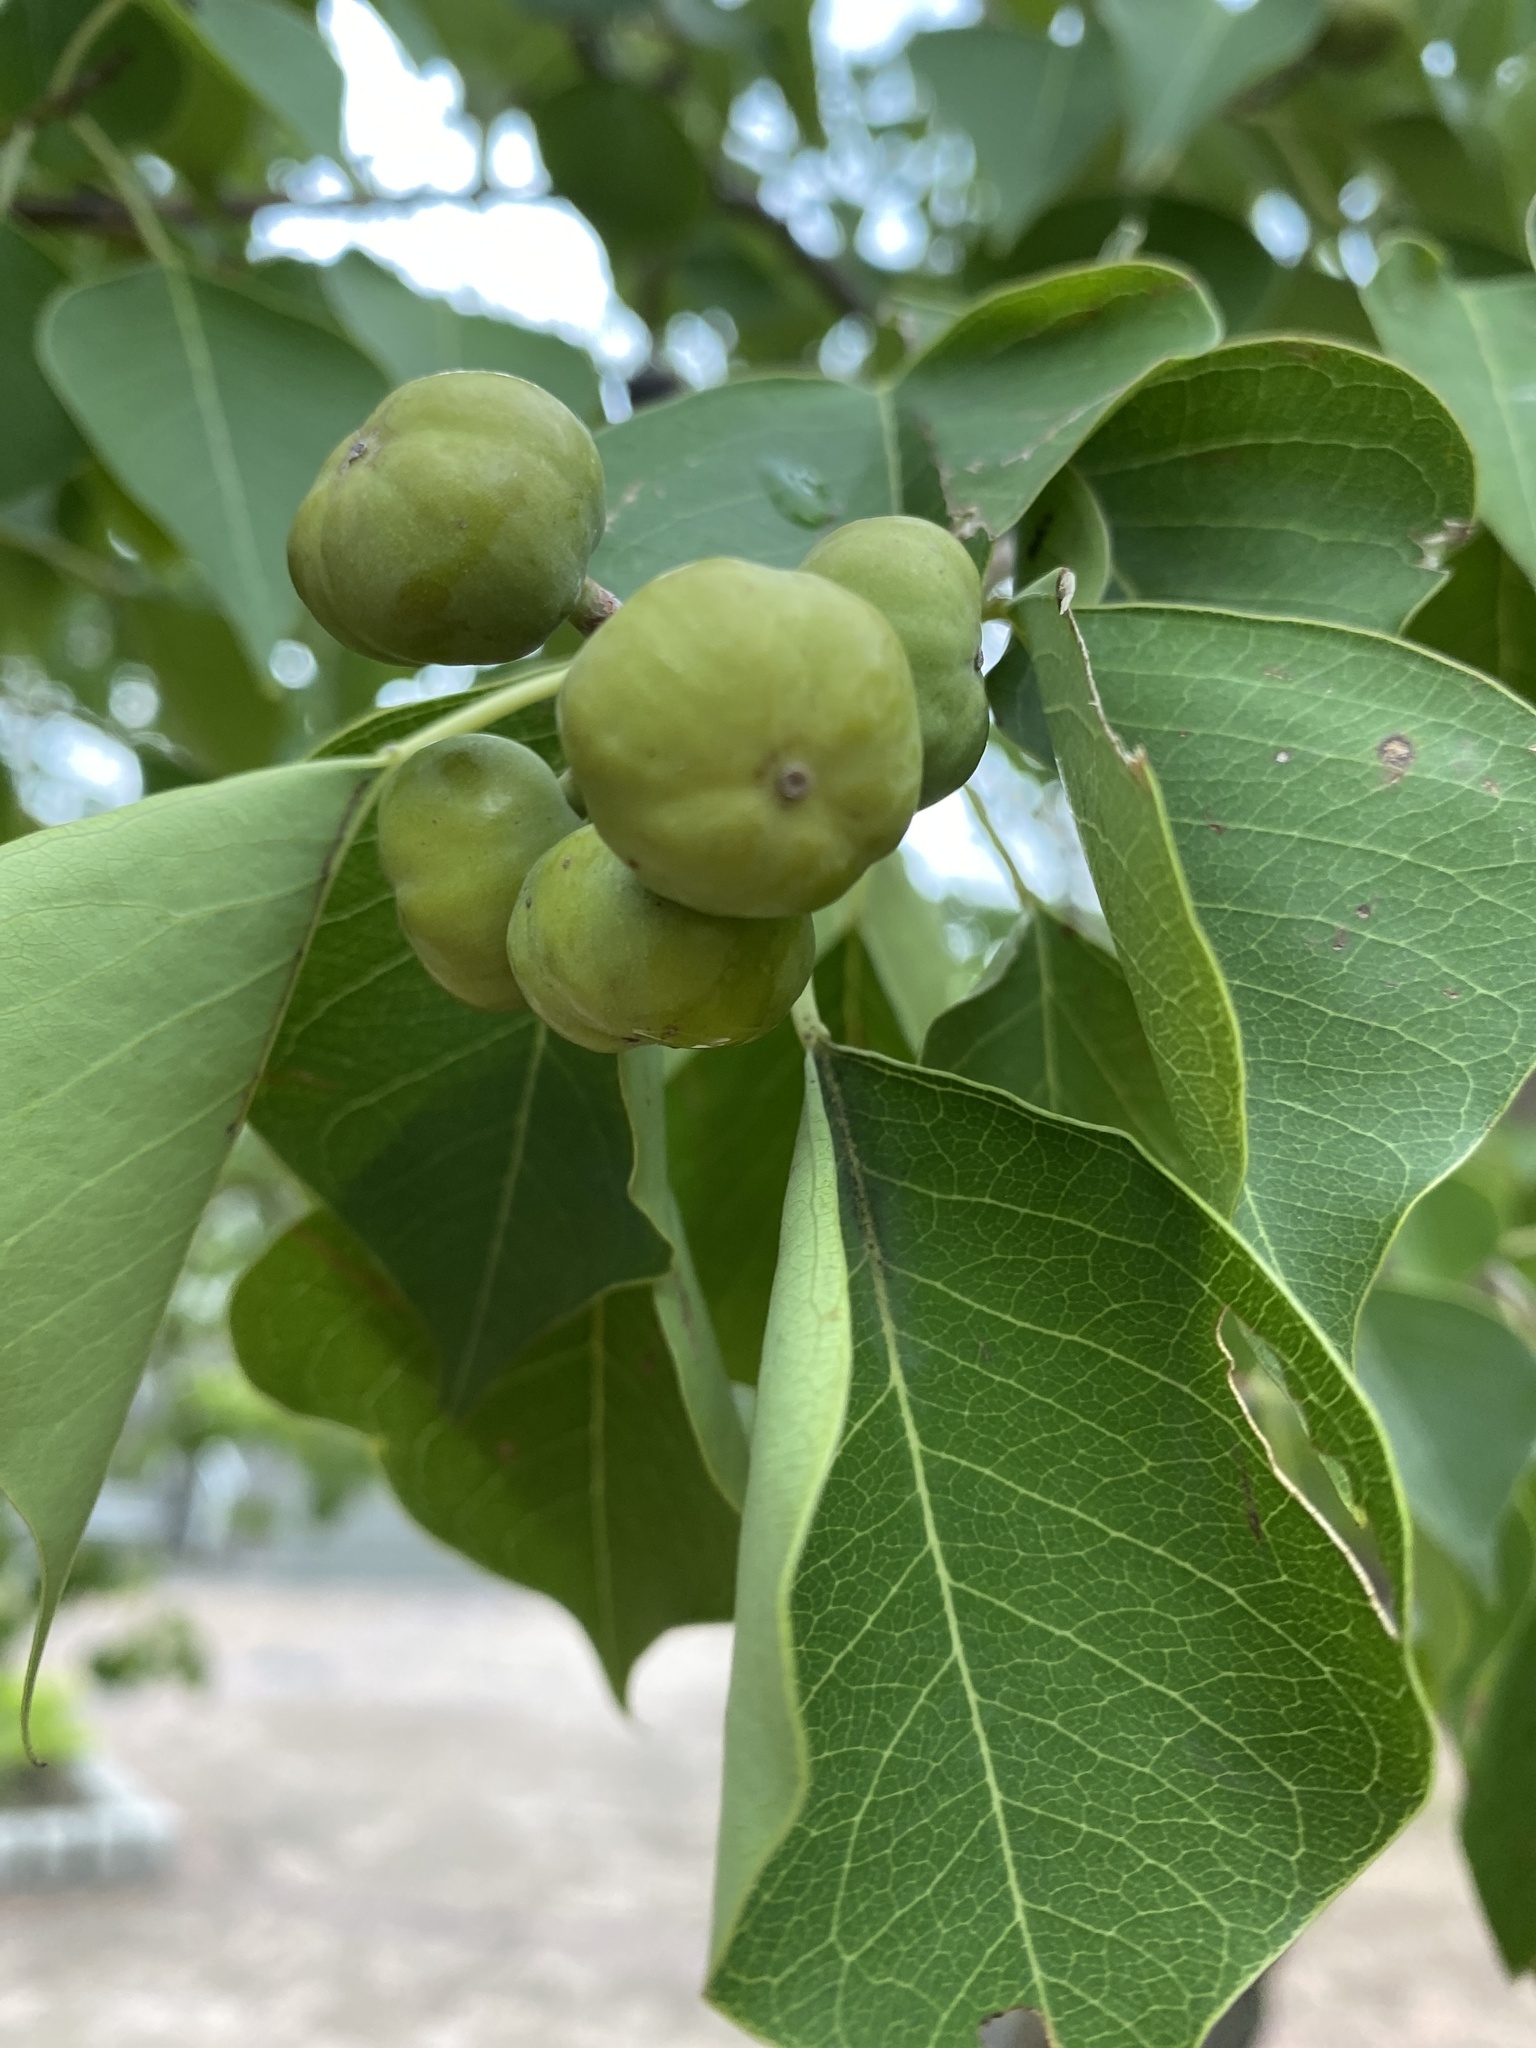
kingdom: Plantae
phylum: Tracheophyta
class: Magnoliopsida
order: Malpighiales
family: Euphorbiaceae
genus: Triadica
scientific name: Triadica sebifera
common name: Chinese tallow
